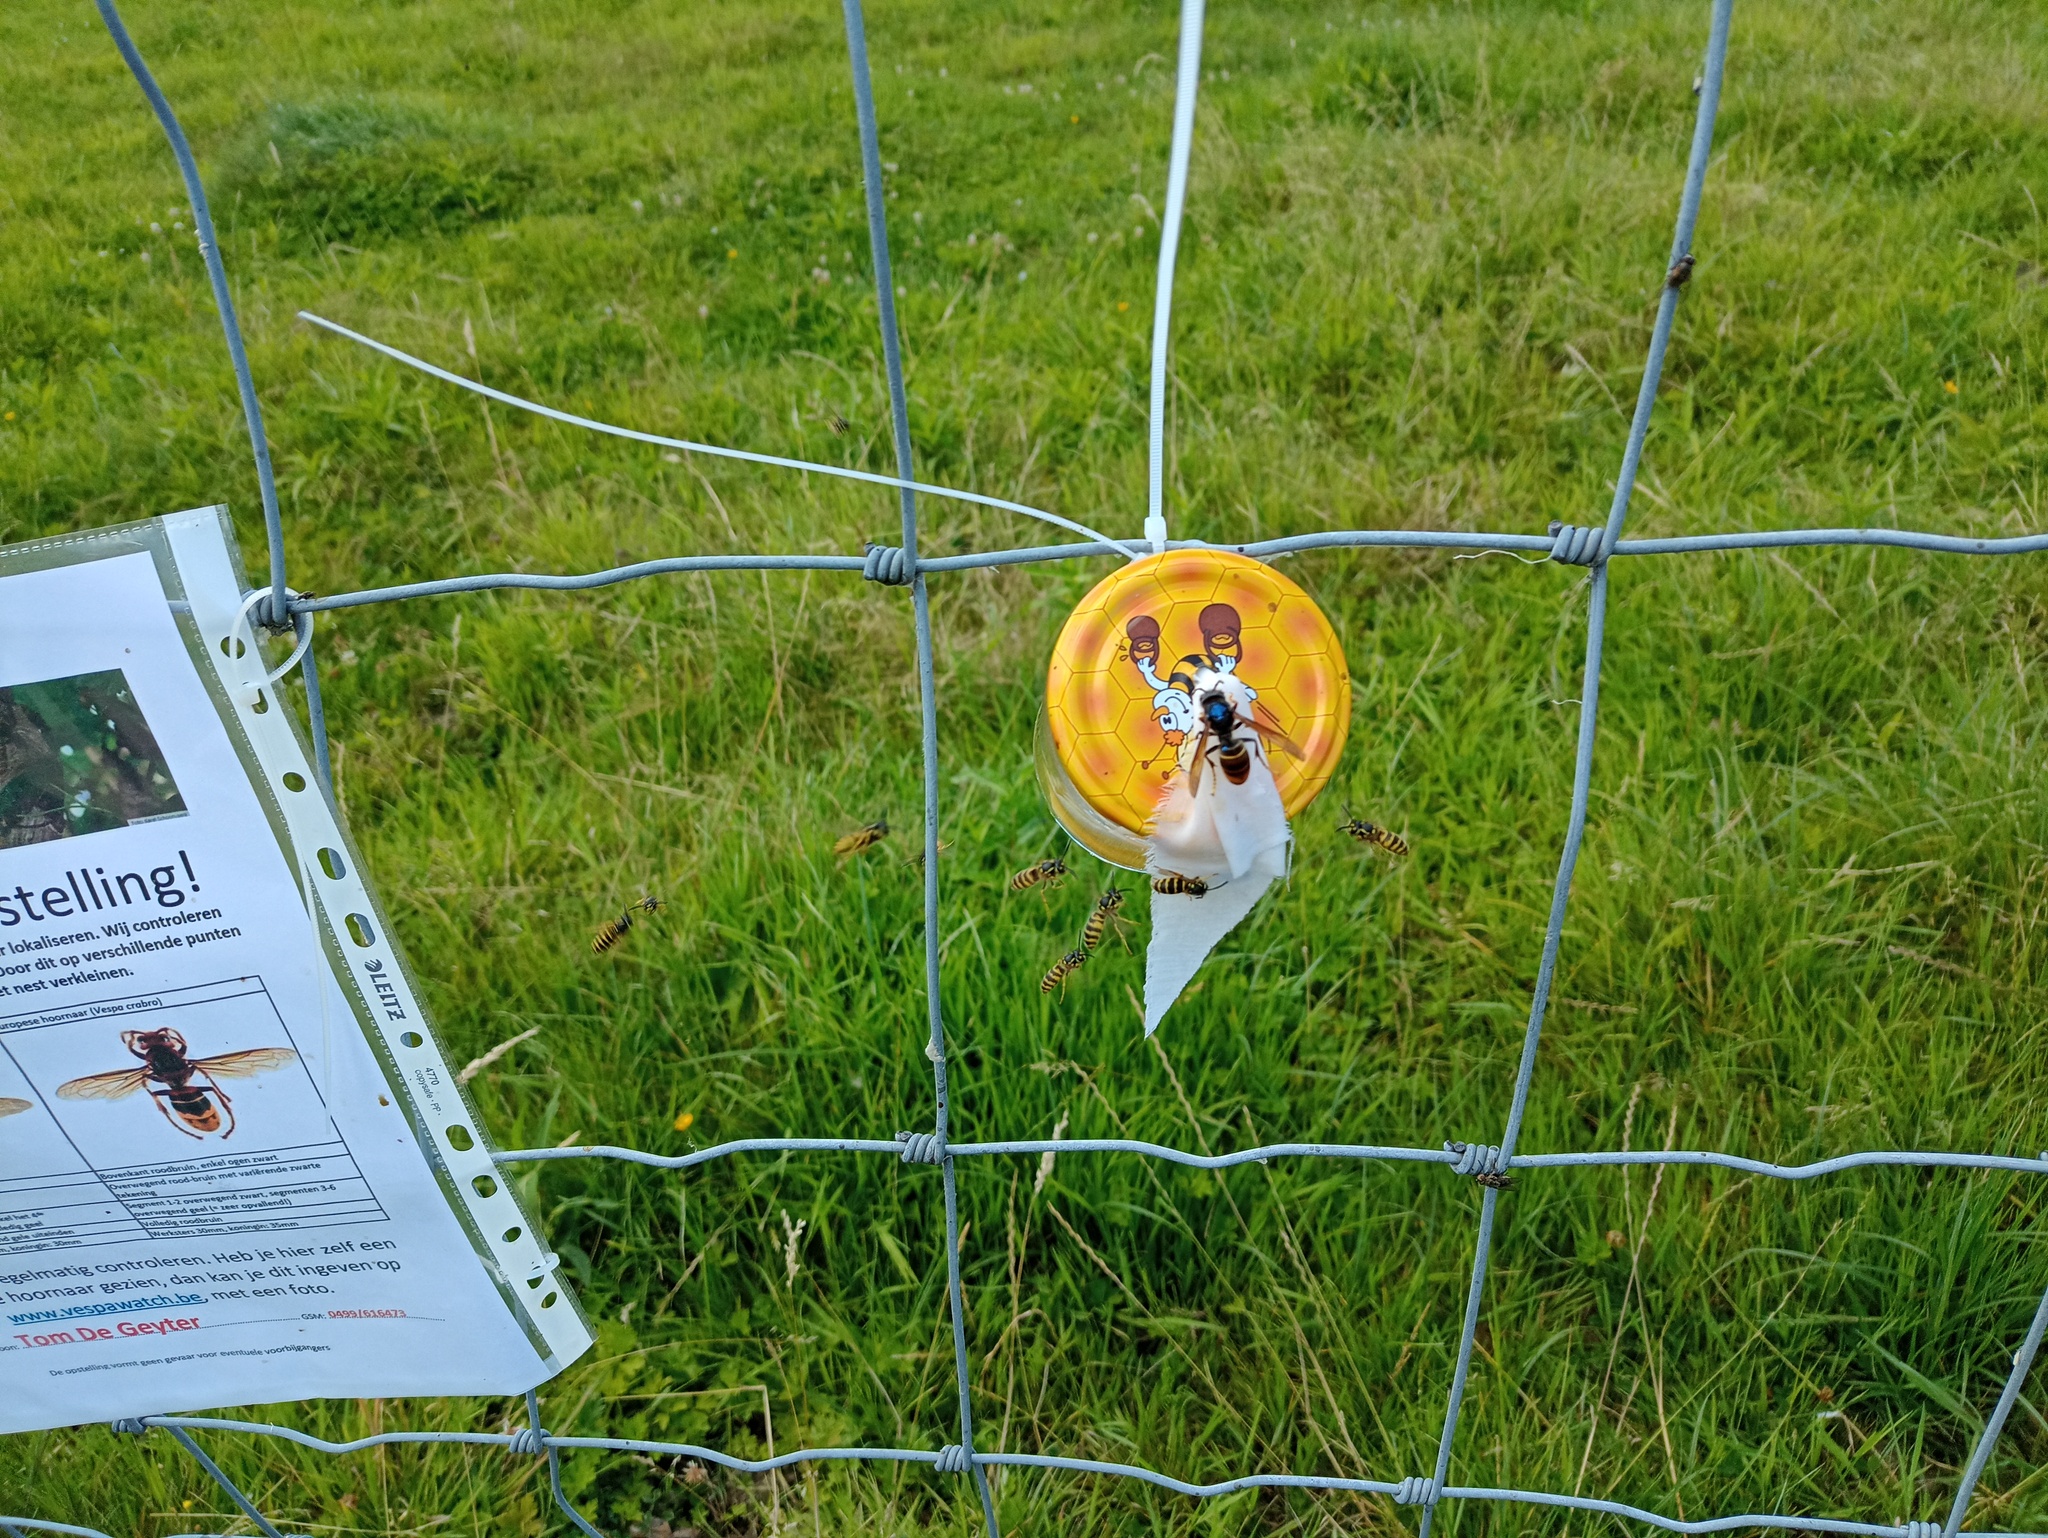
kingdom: Animalia
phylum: Arthropoda
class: Insecta
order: Hymenoptera
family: Vespidae
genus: Vespa
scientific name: Vespa velutina
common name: Asian hornet
